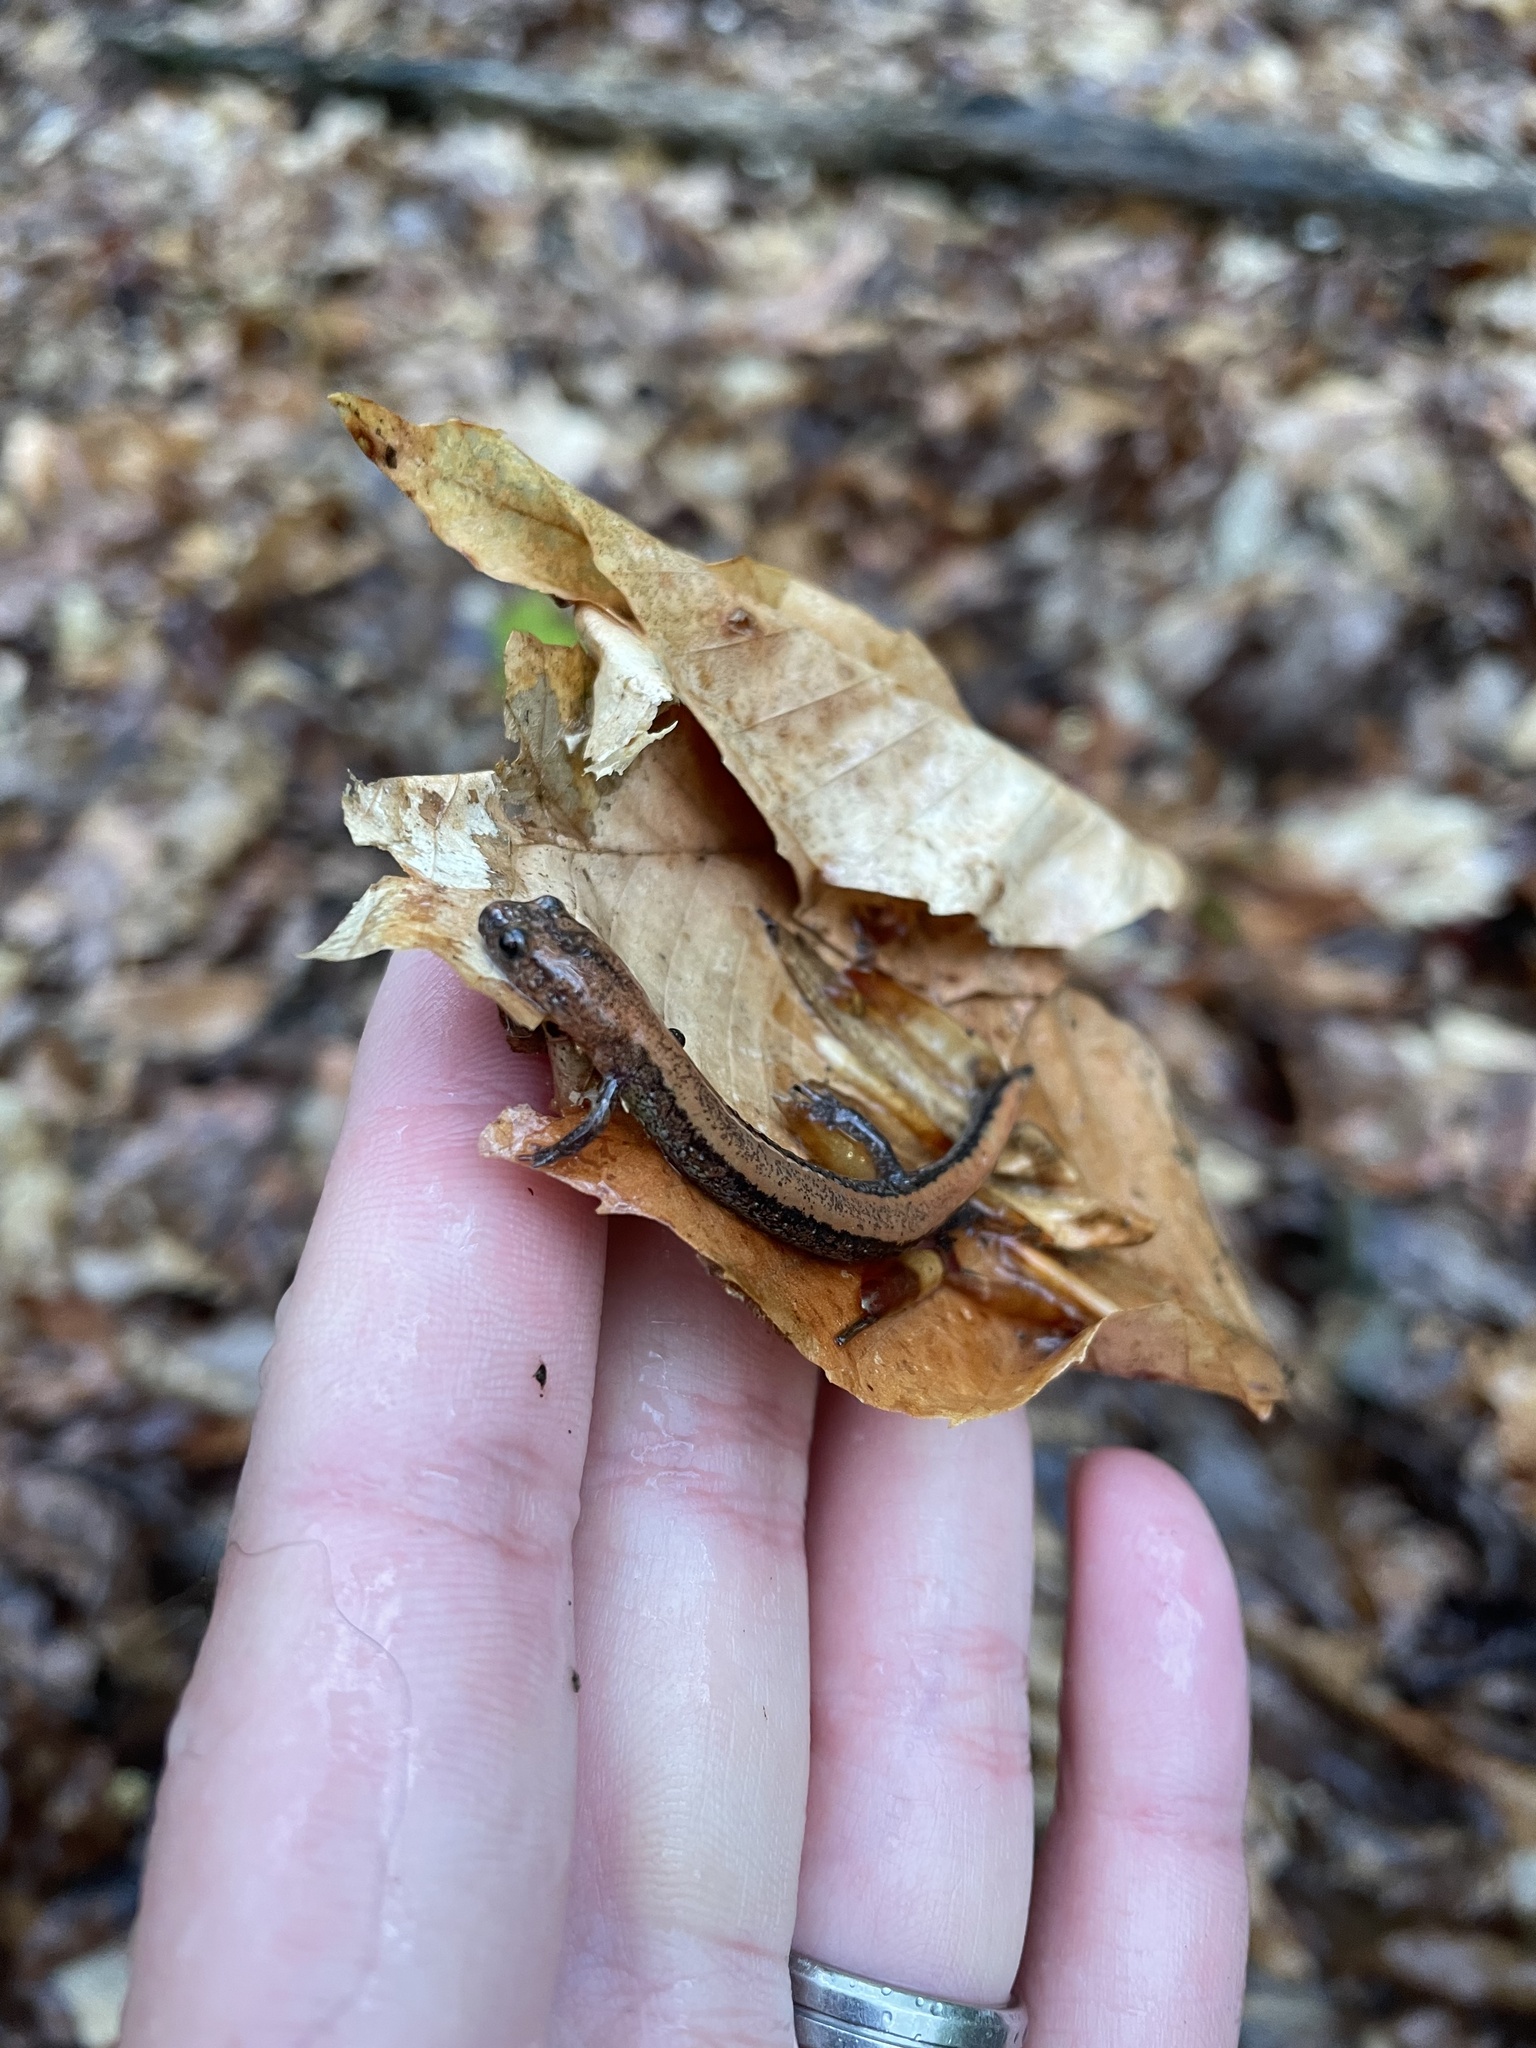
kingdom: Animalia
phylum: Chordata
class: Amphibia
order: Caudata
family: Plethodontidae
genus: Plethodon
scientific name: Plethodon cinereus
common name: Redback salamander
